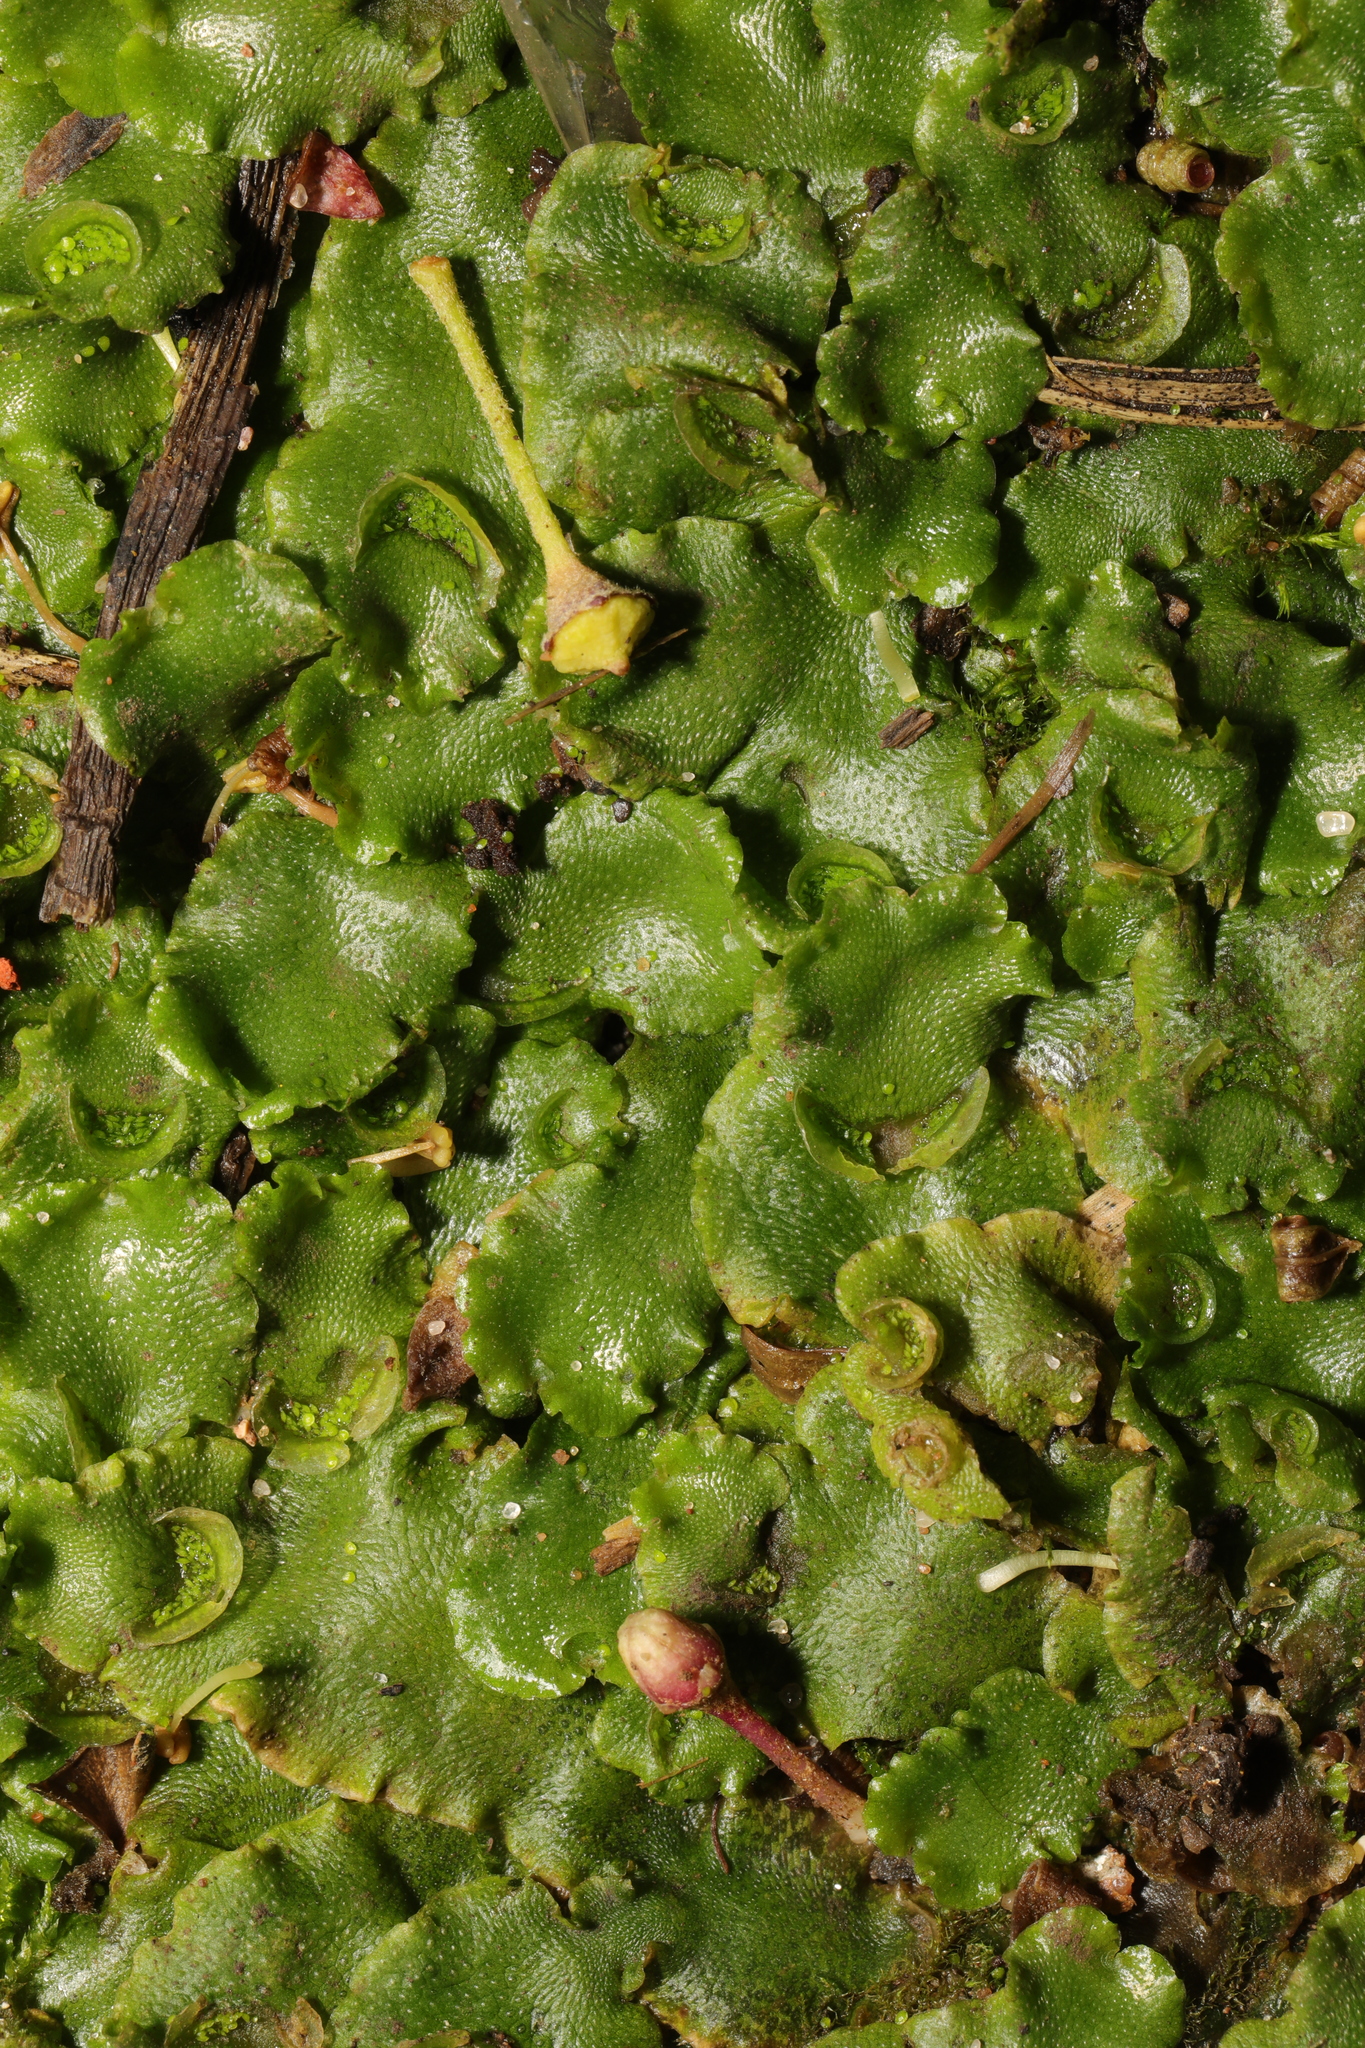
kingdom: Plantae
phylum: Marchantiophyta
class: Marchantiopsida
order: Lunulariales
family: Lunulariaceae
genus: Lunularia
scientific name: Lunularia cruciata
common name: Crescent-cup liverwort
